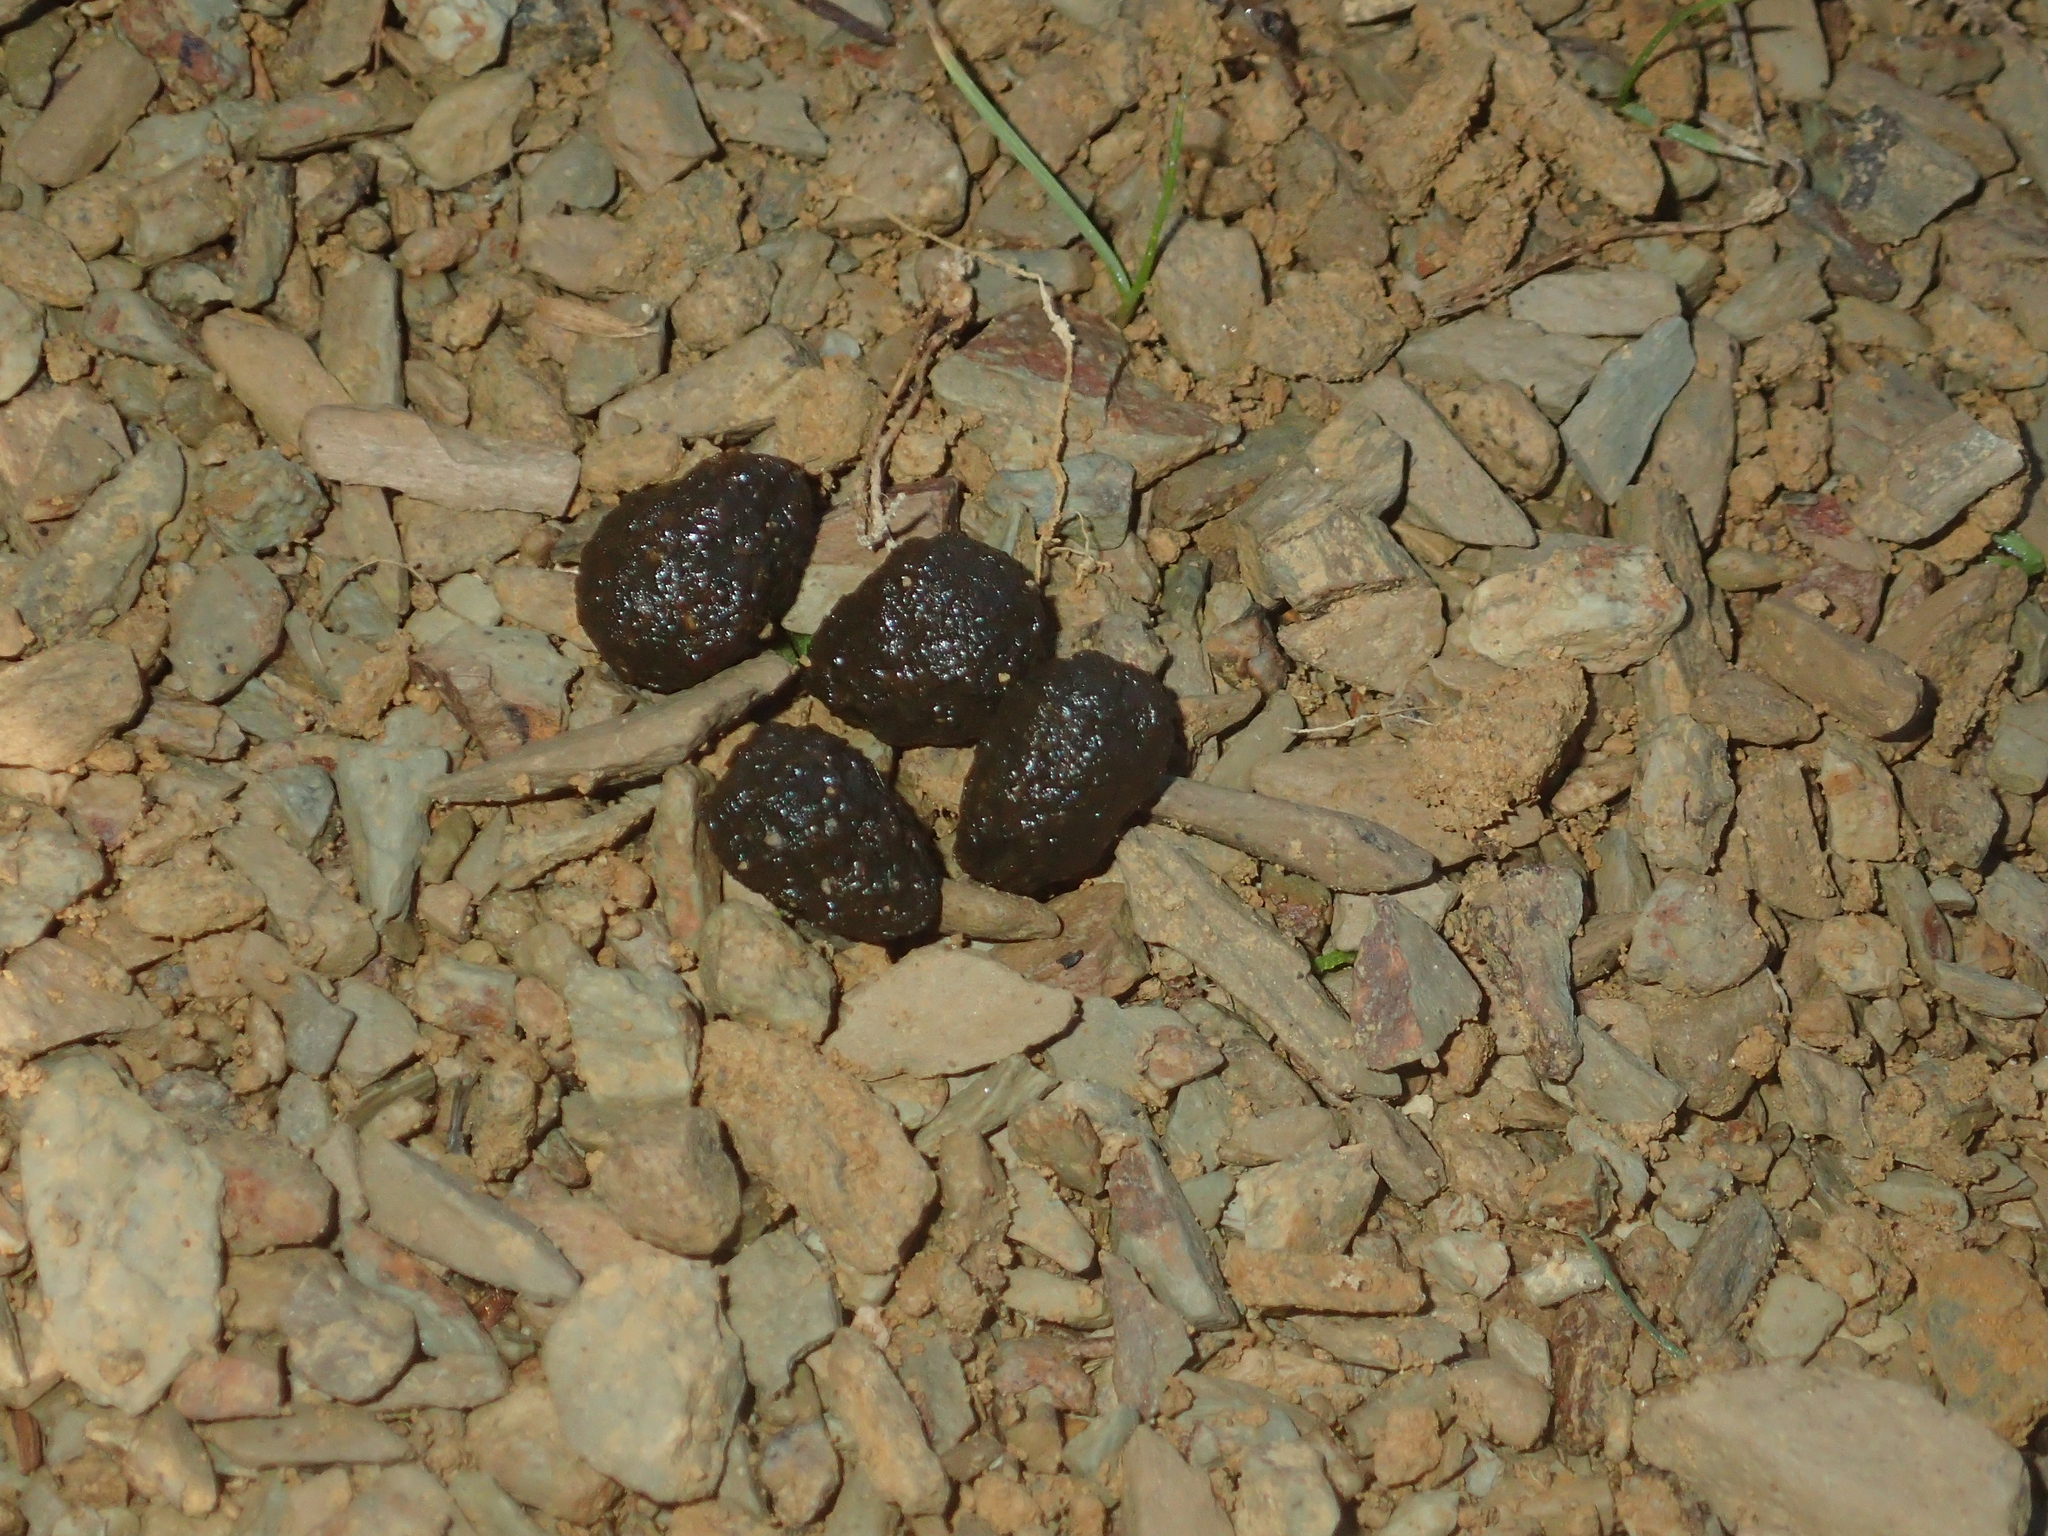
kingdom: Animalia
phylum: Chordata
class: Mammalia
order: Lagomorpha
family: Leporidae
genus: Oryctolagus
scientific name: Oryctolagus cuniculus
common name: European rabbit
